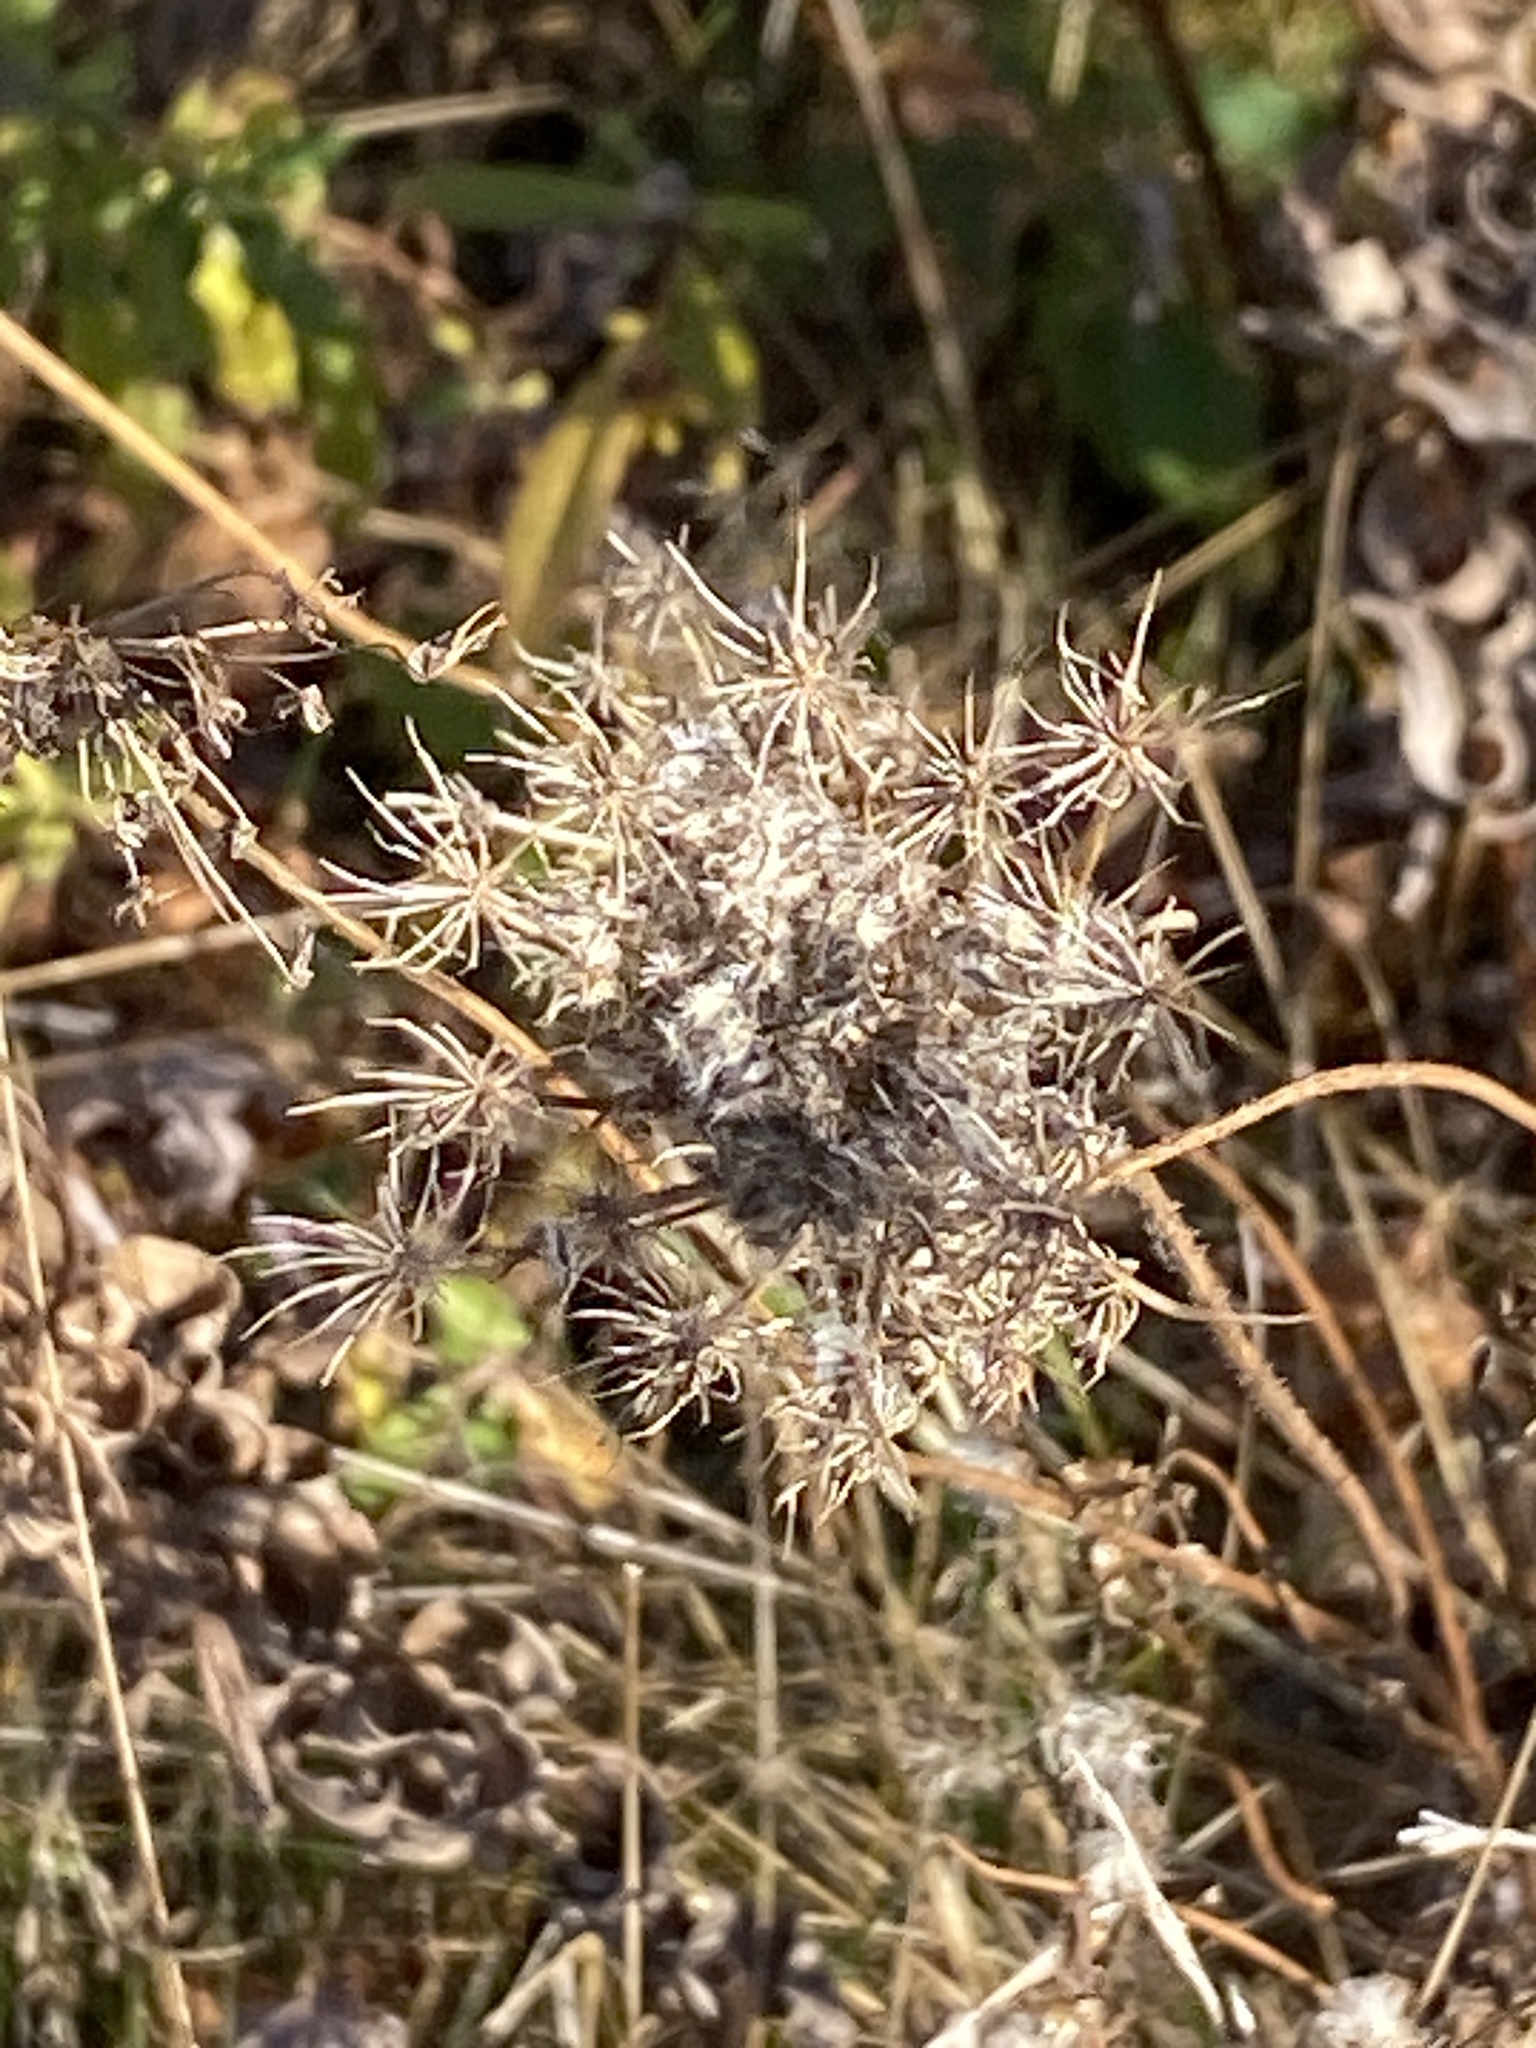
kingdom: Plantae
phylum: Tracheophyta
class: Magnoliopsida
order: Apiales
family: Apiaceae
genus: Daucus
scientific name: Daucus carota
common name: Wild carrot
